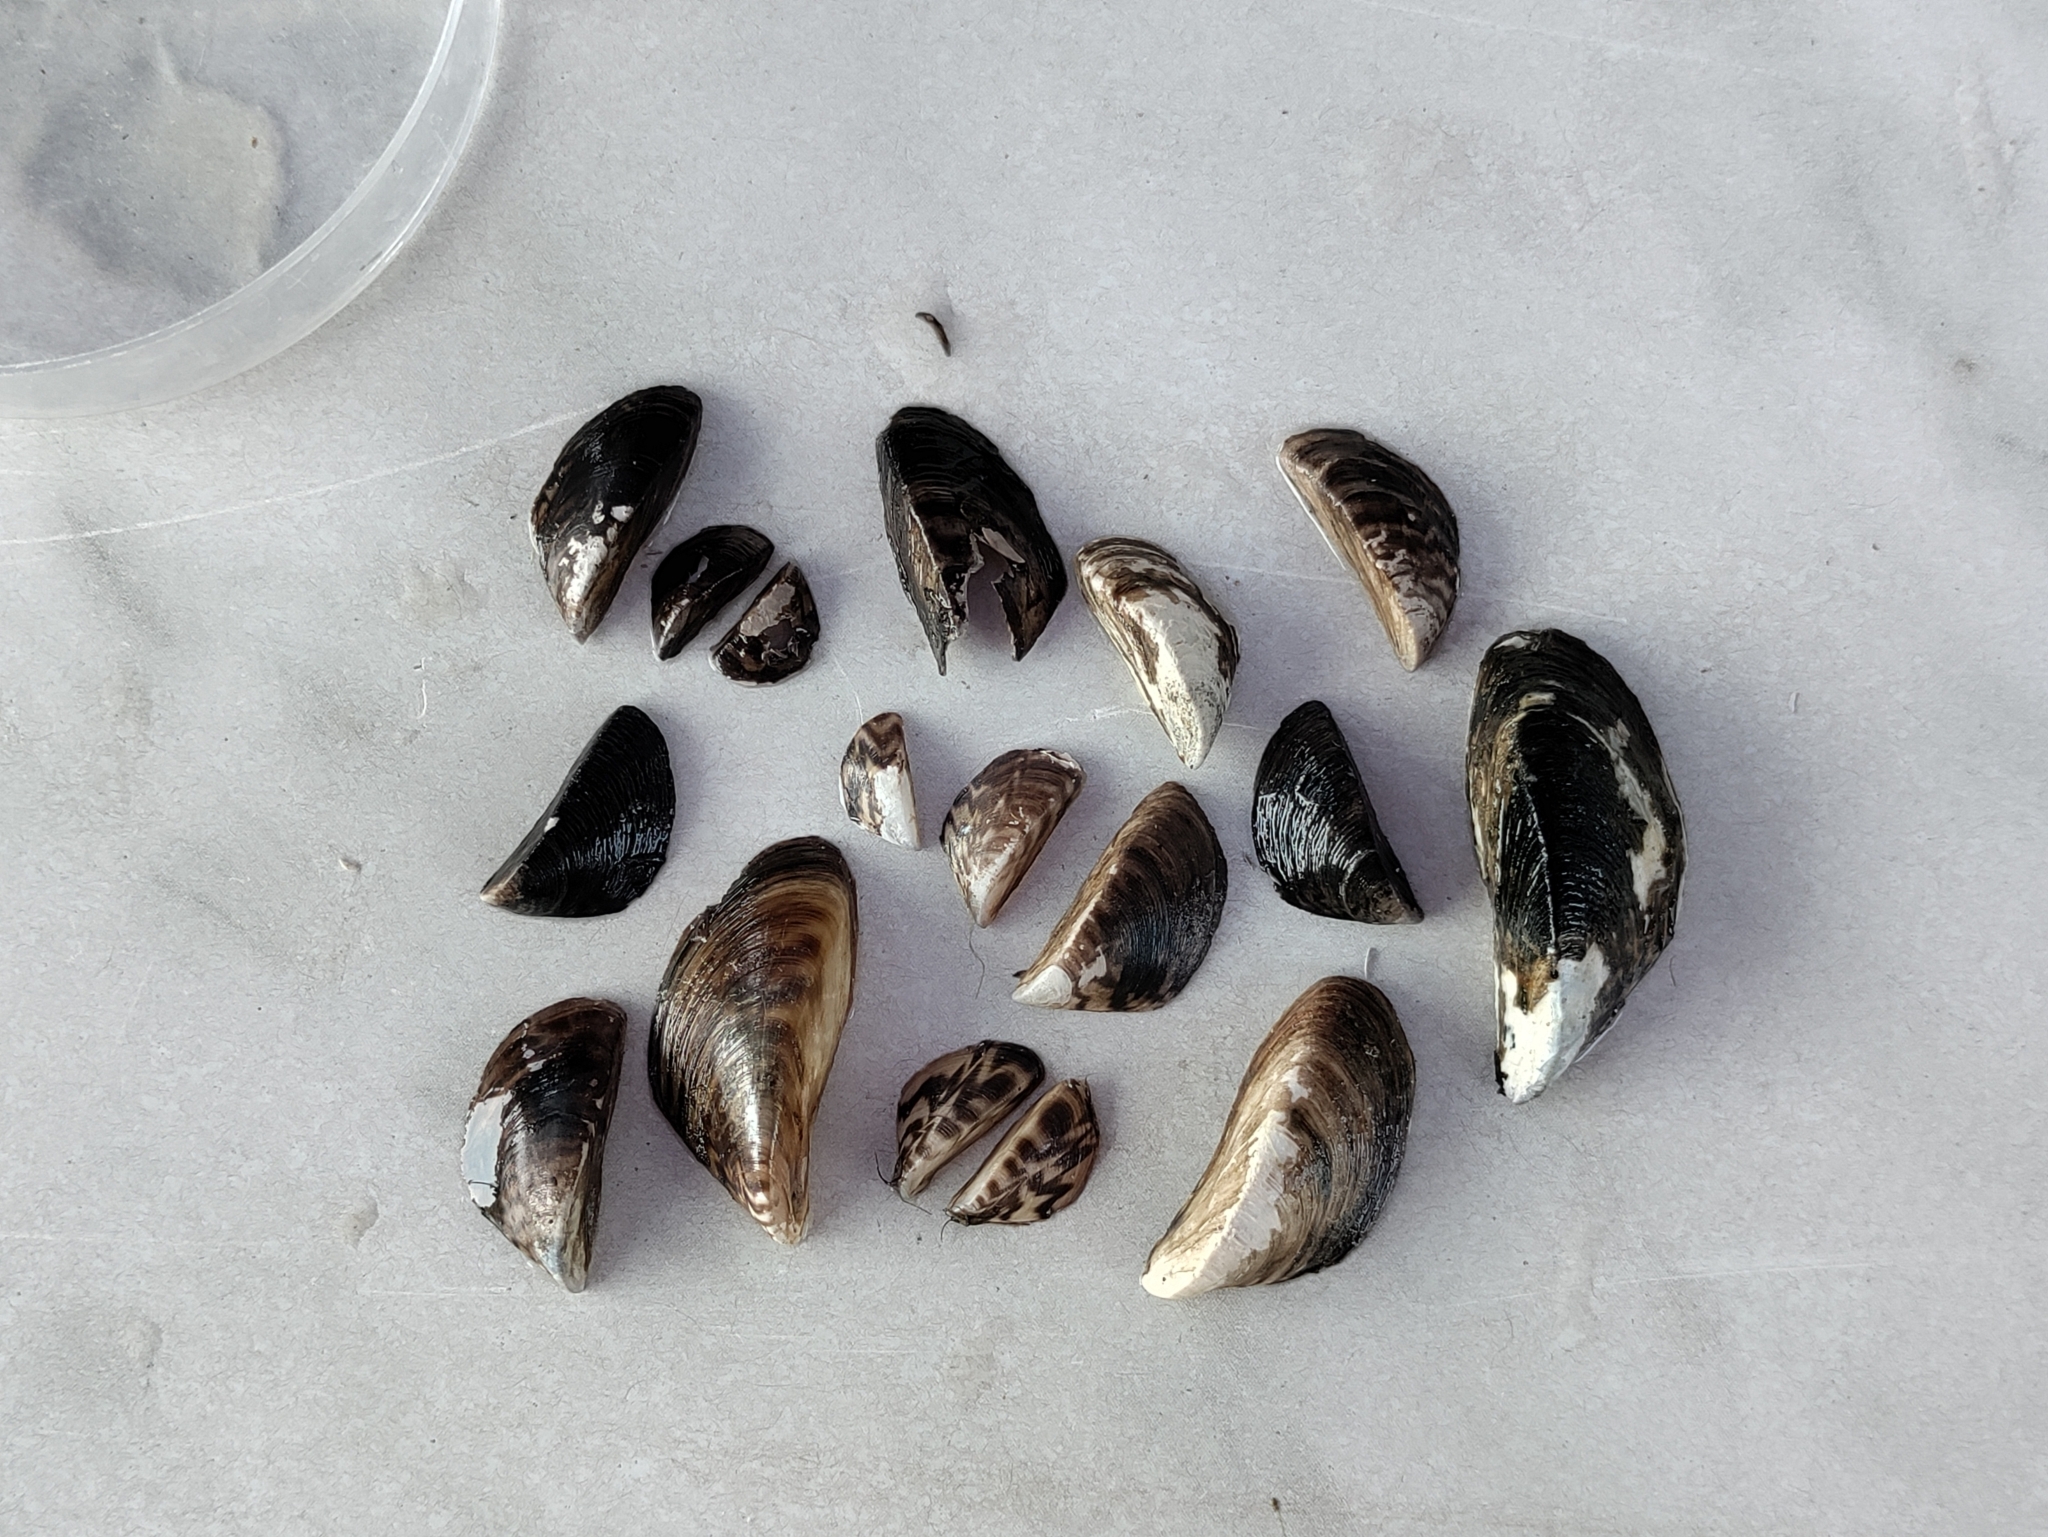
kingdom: Animalia
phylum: Mollusca
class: Bivalvia
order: Myida
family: Dreissenidae
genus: Dreissena
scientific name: Dreissena polymorpha
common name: Zebra mussel
